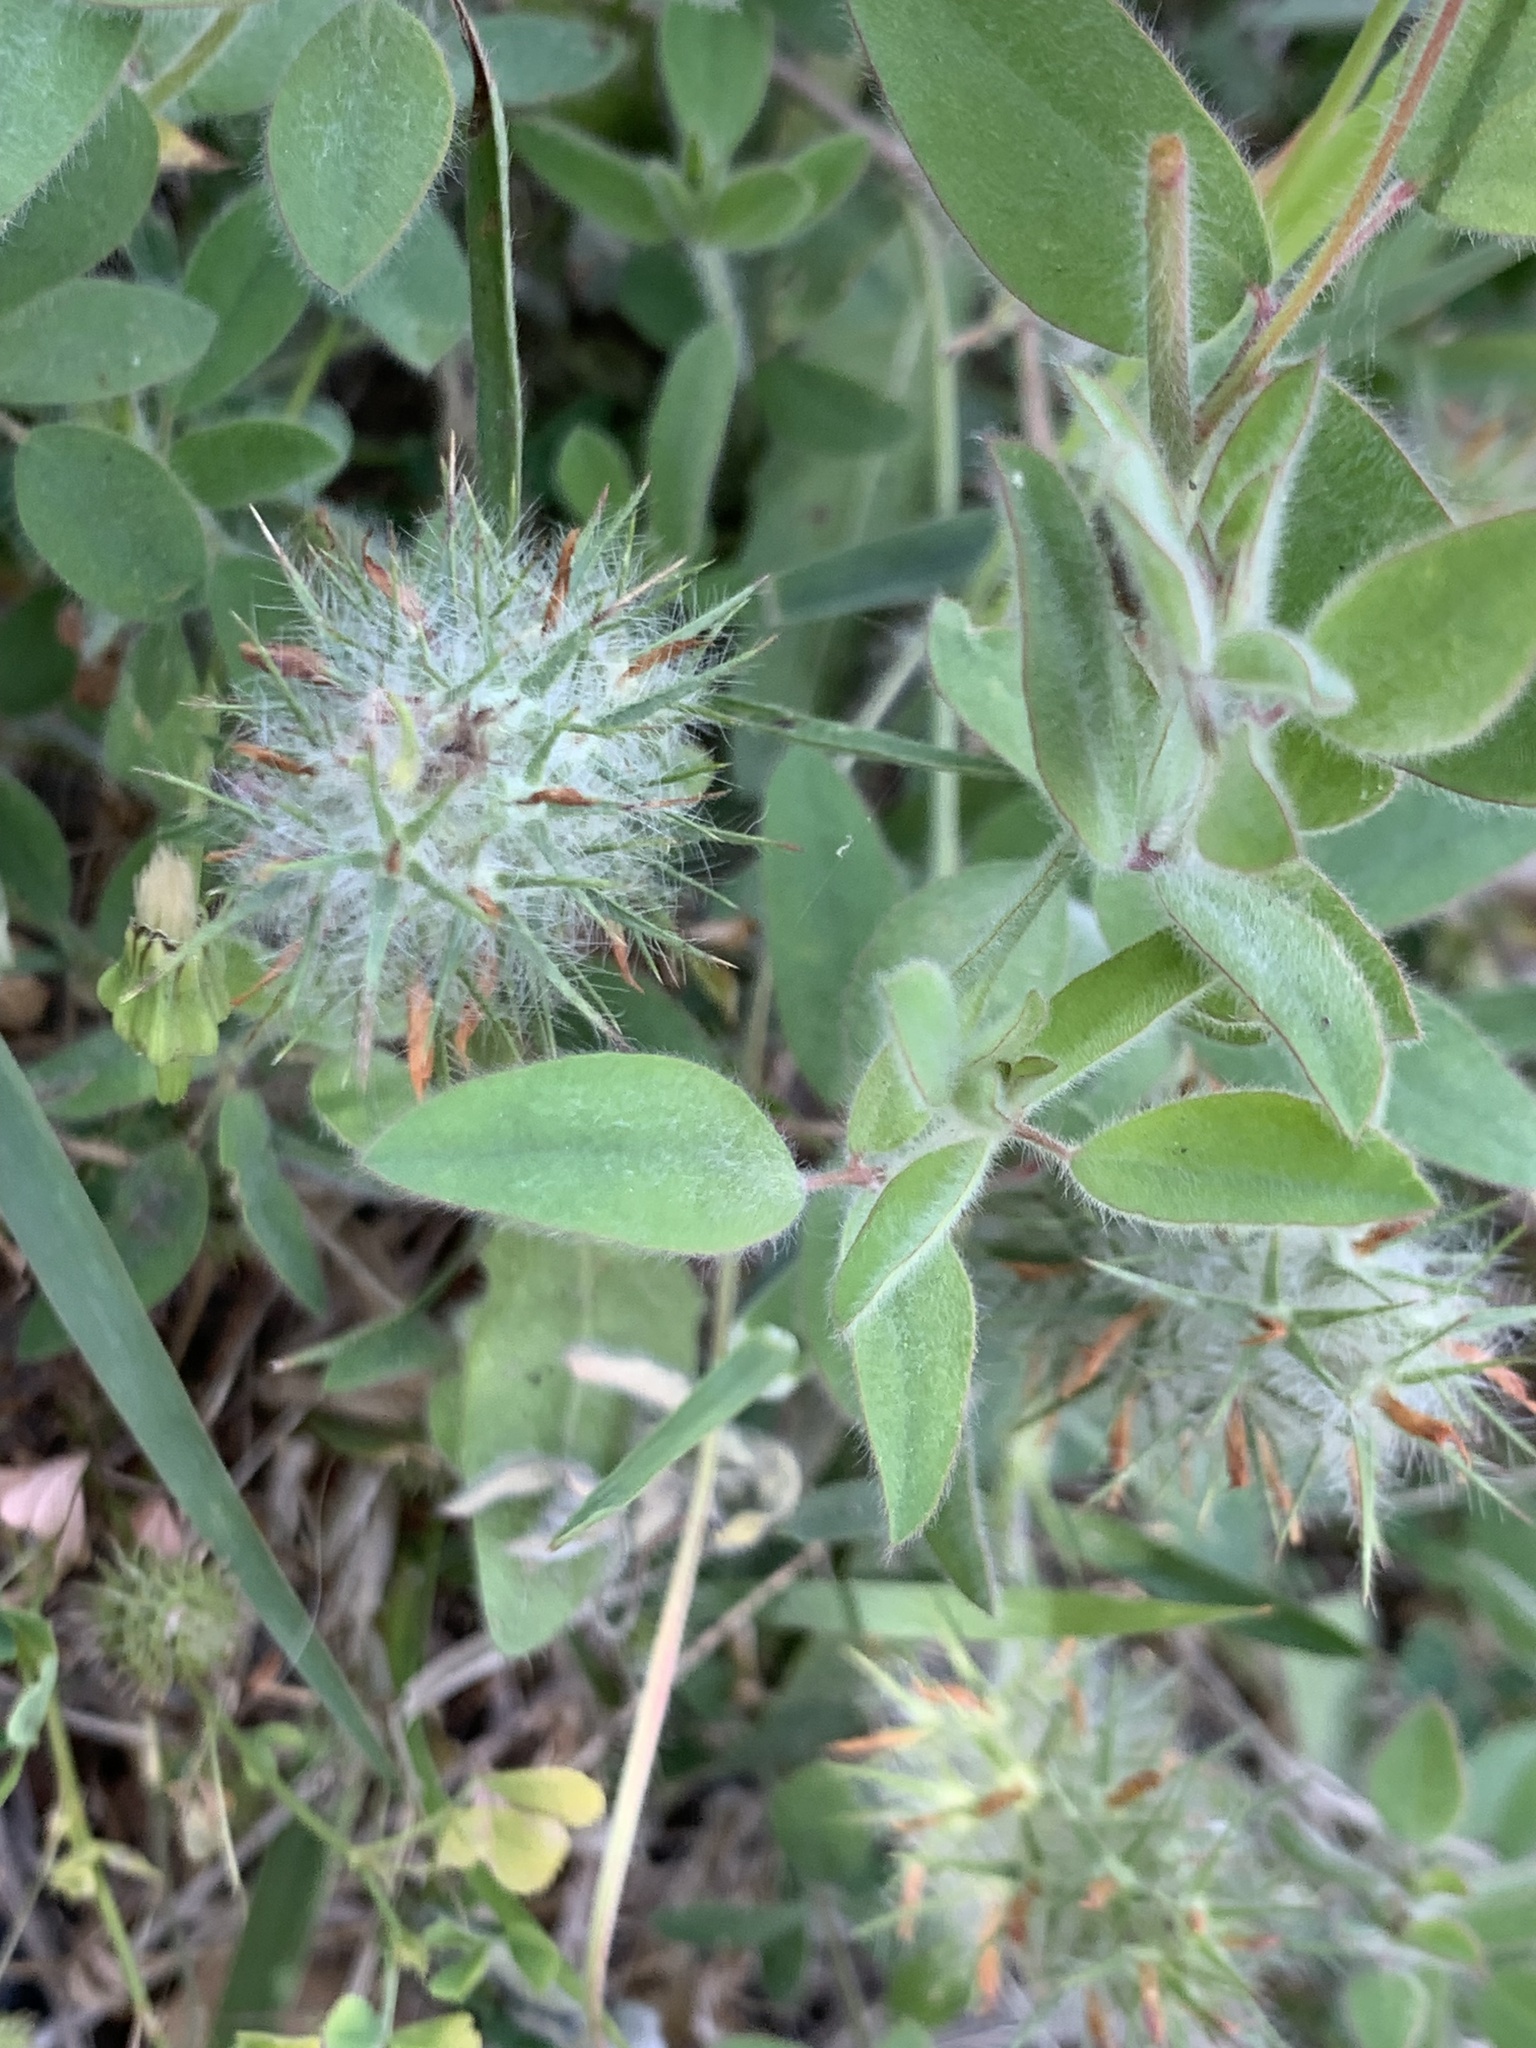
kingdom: Plantae
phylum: Tracheophyta
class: Magnoliopsida
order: Fabales
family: Fabaceae
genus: Trifolium
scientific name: Trifolium angustifolium
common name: Narrow clover
